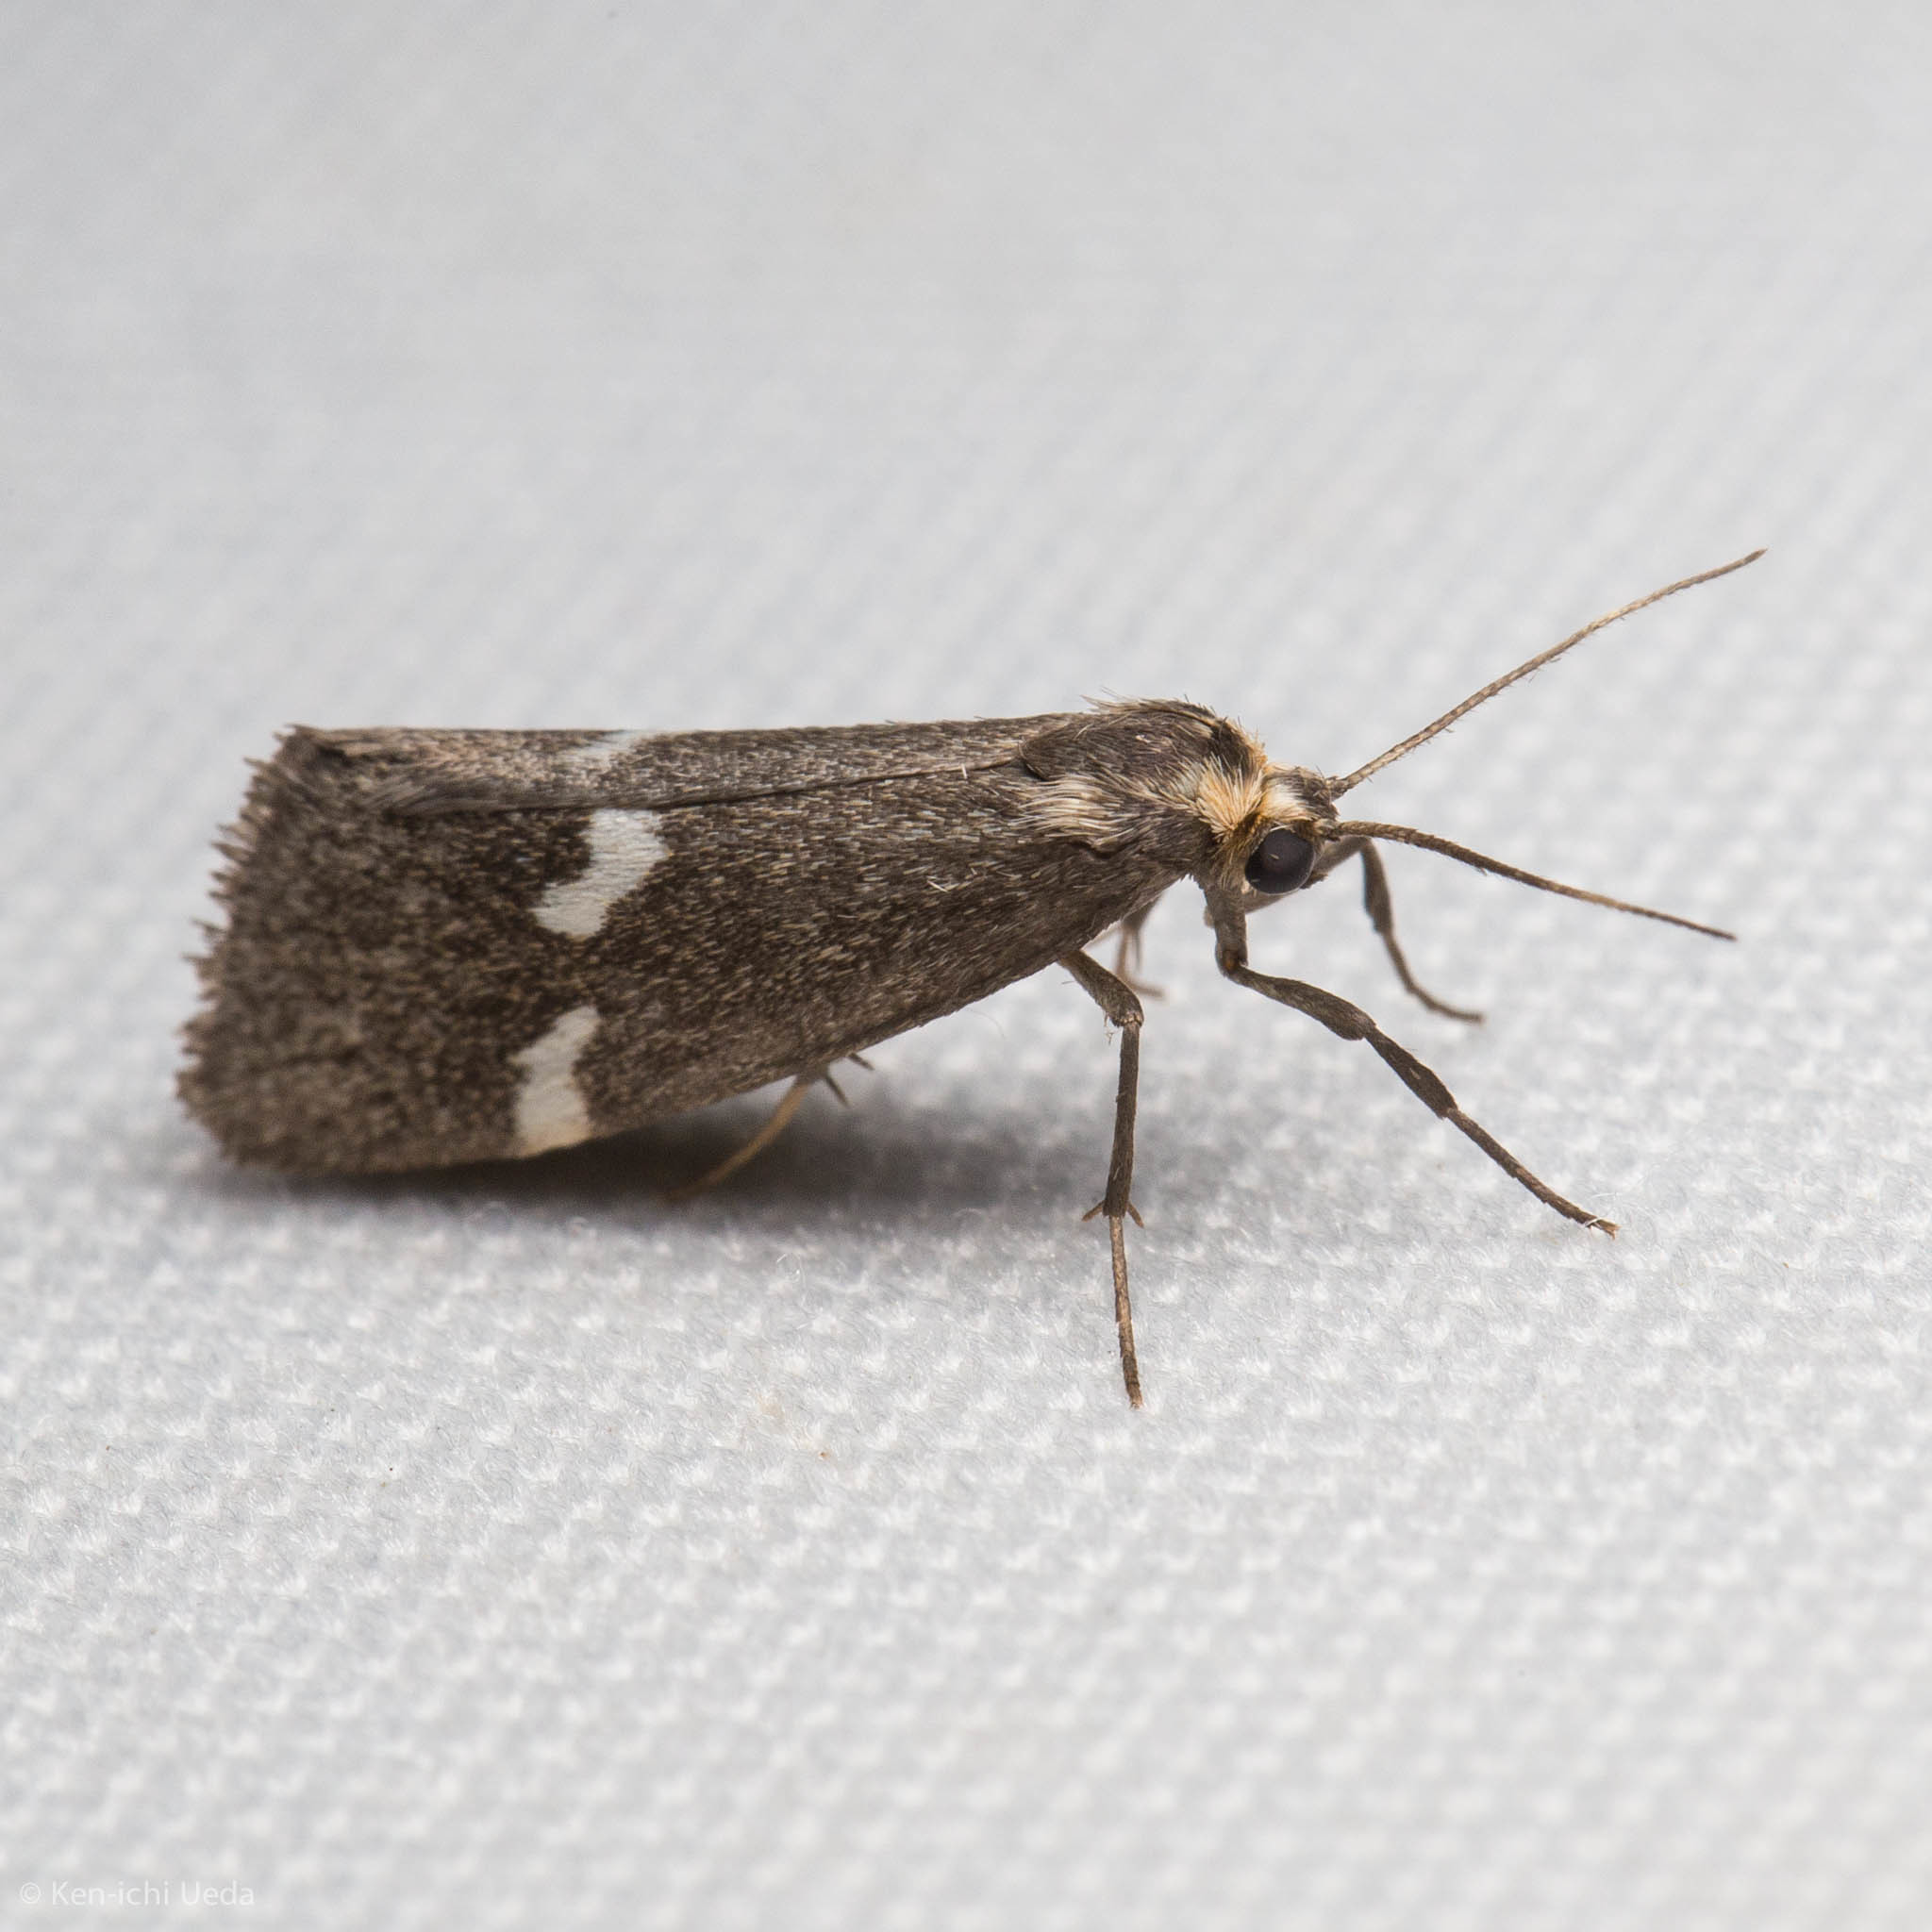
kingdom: Animalia
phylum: Arthropoda
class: Insecta
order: Lepidoptera
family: Erebidae
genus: Cisthene
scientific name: Cisthene liberomacula
